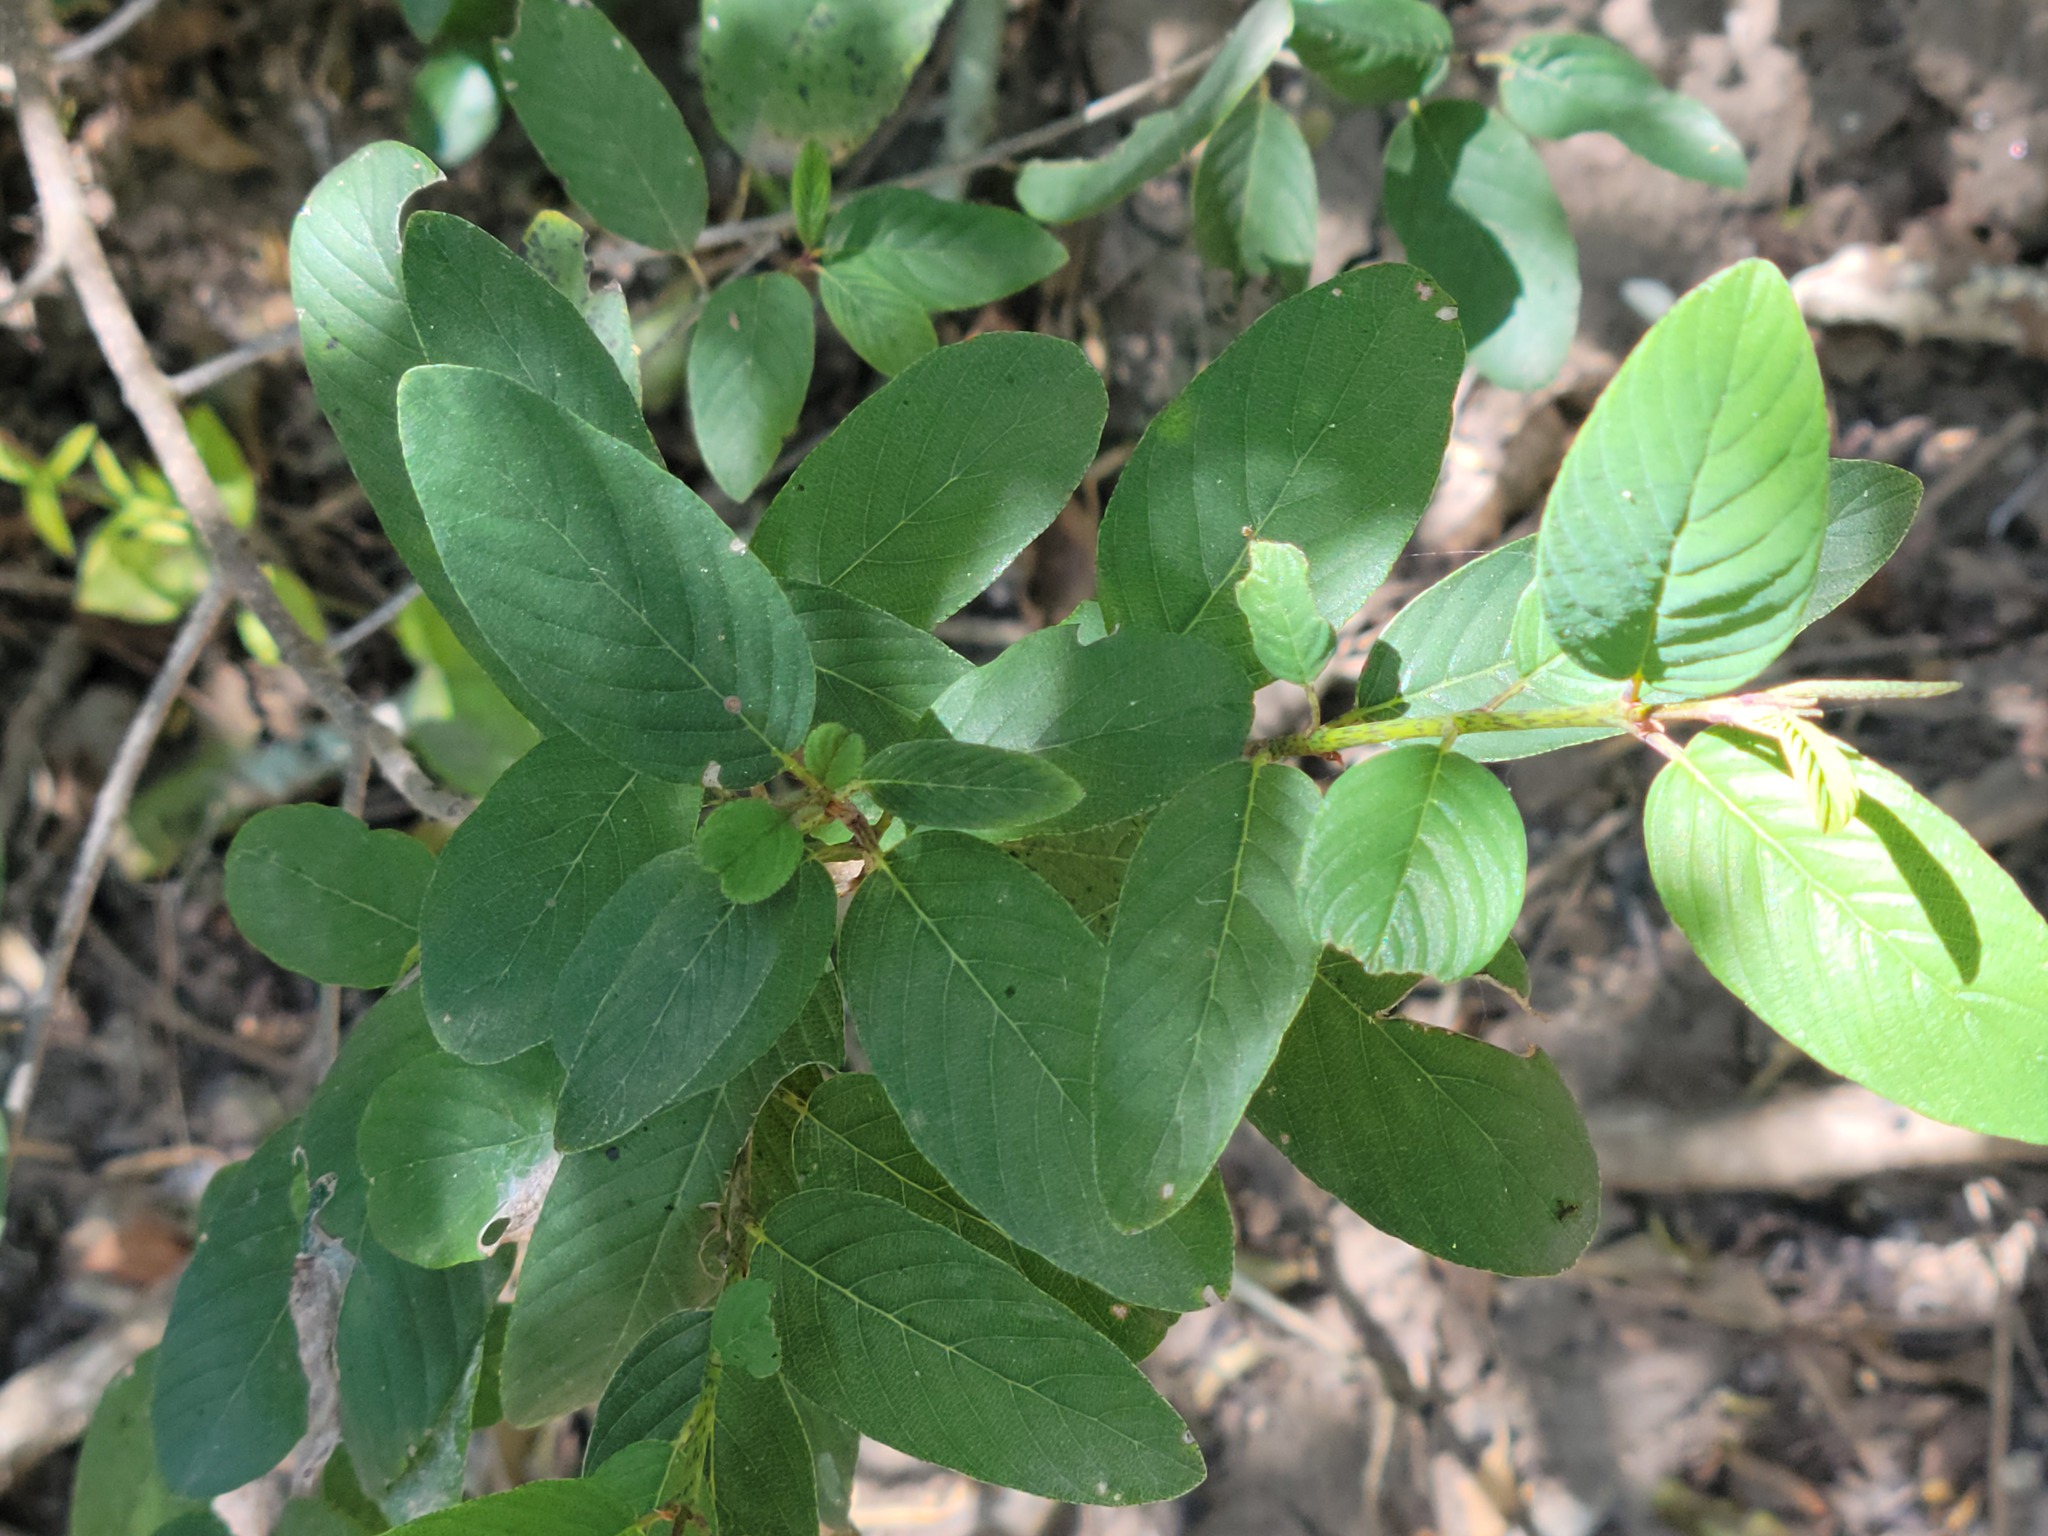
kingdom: Plantae
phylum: Tracheophyta
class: Magnoliopsida
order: Rosales
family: Rhamnaceae
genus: Karwinskia
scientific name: Karwinskia humboldtiana
